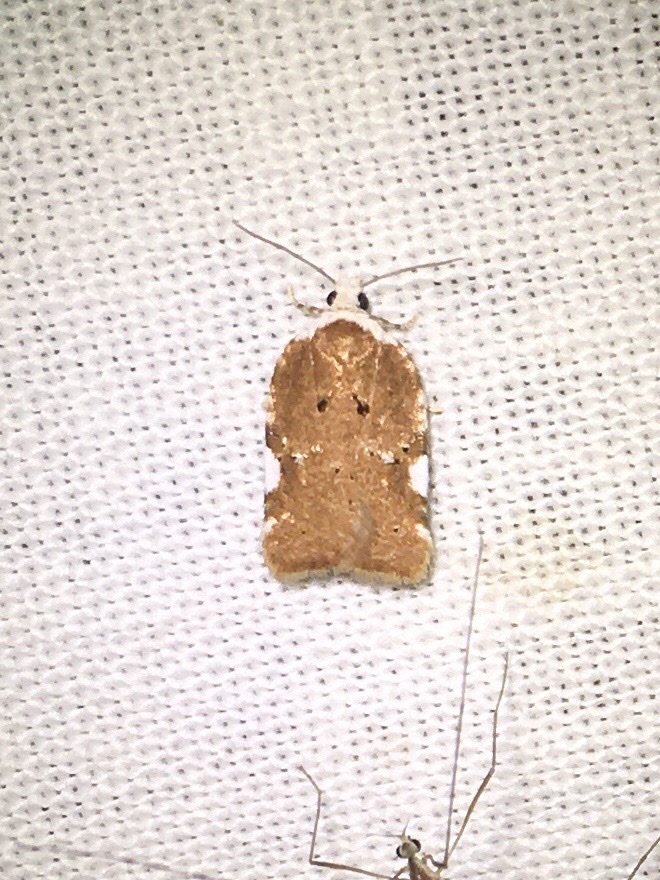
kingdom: Animalia
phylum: Arthropoda
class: Insecta
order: Lepidoptera
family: Tortricidae
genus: Acleris
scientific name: Acleris cervinana
